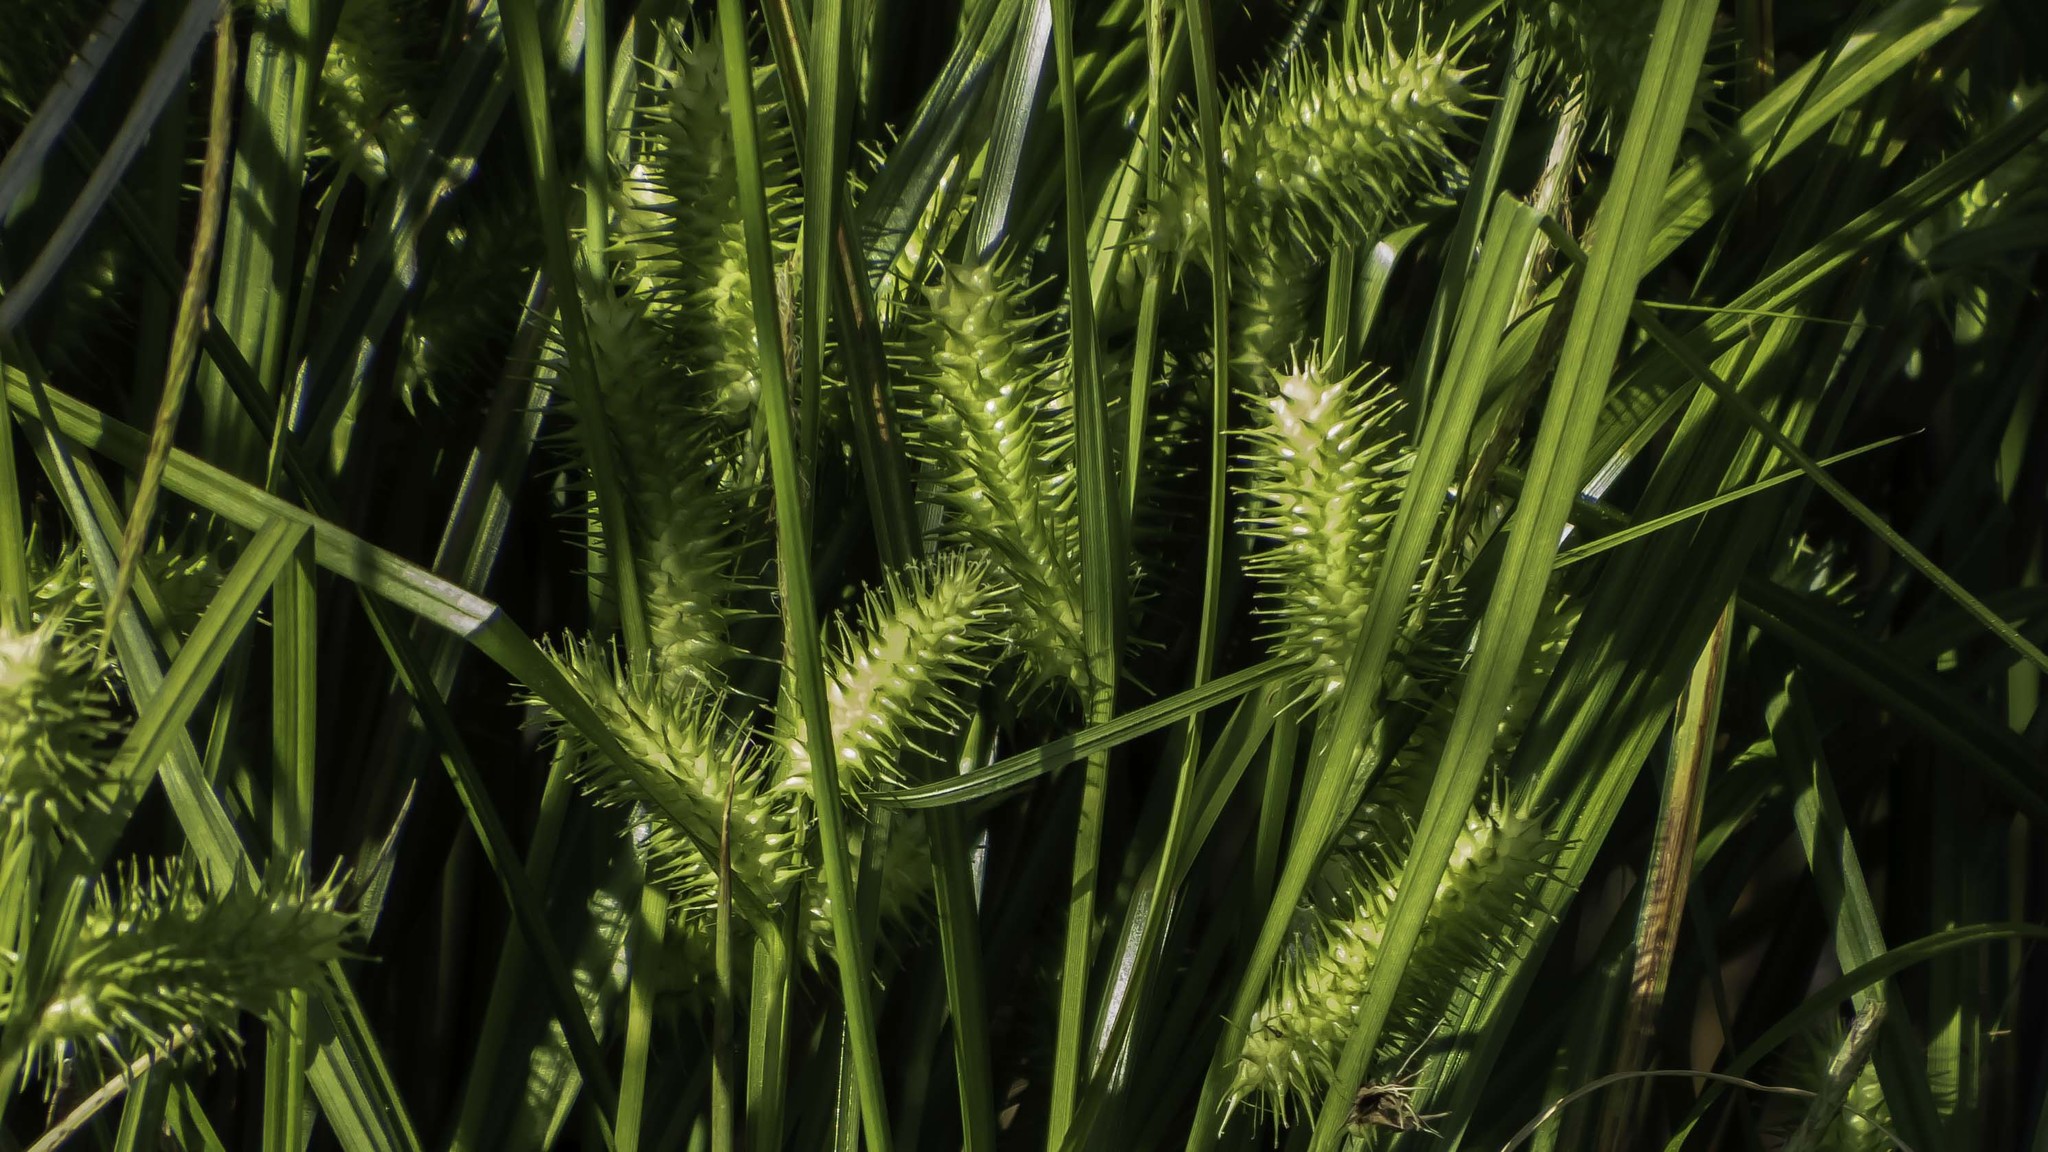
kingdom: Plantae
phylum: Tracheophyta
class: Liliopsida
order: Poales
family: Cyperaceae
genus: Carex
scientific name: Carex lurida
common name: Sallow sedge
